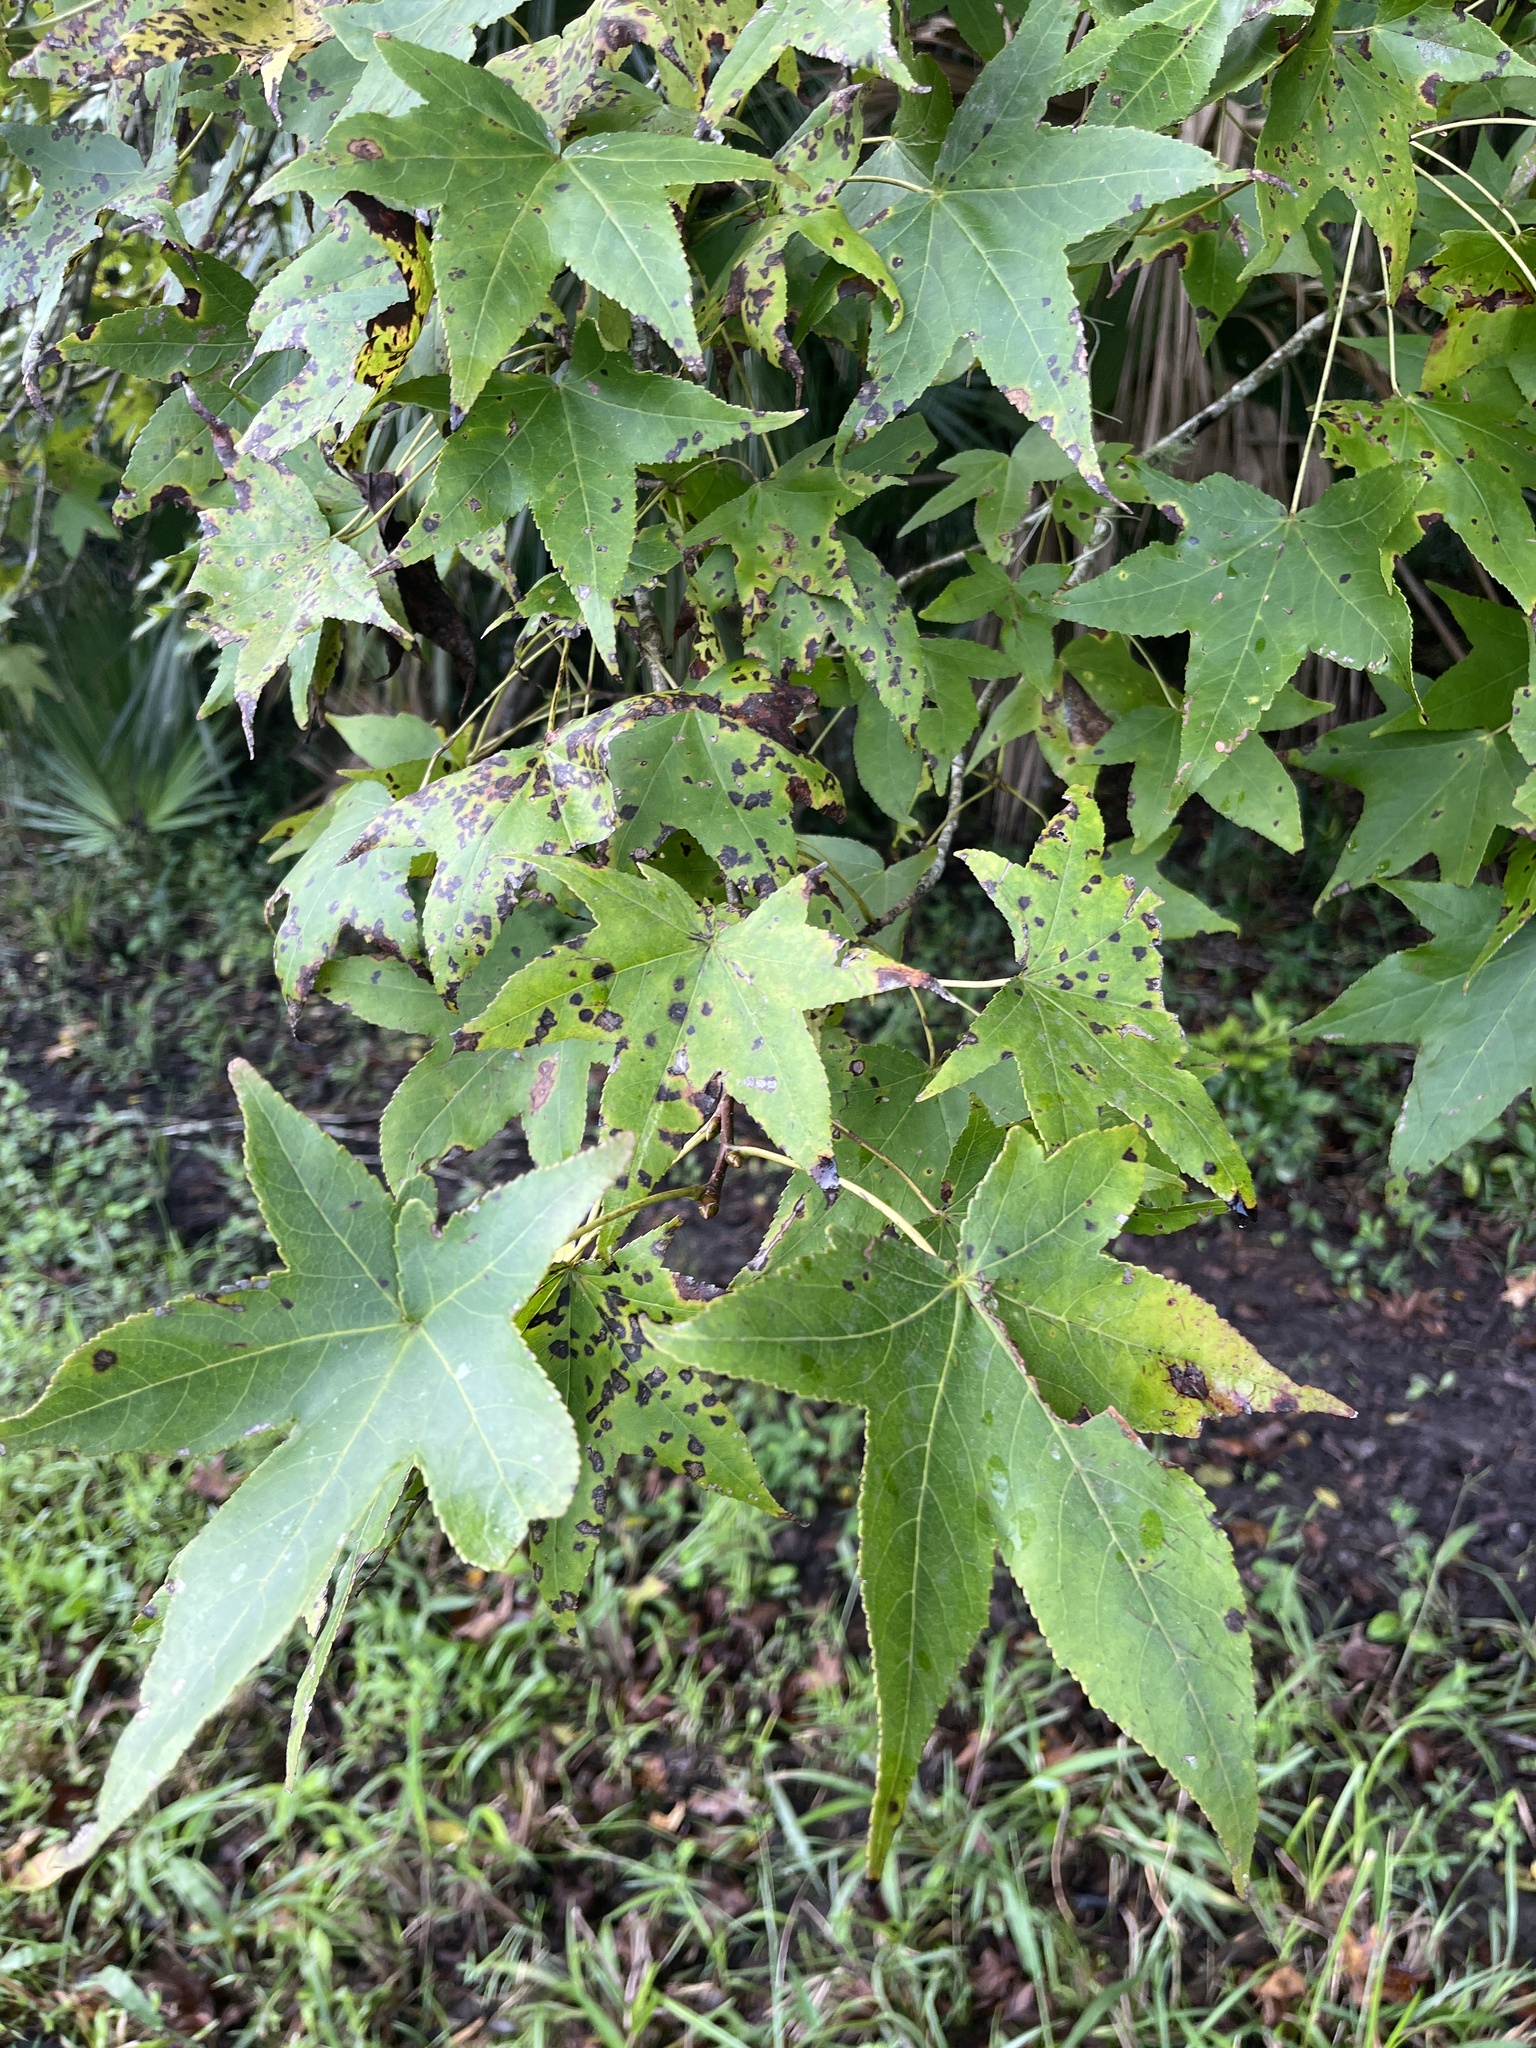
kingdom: Plantae
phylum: Tracheophyta
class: Magnoliopsida
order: Saxifragales
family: Altingiaceae
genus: Liquidambar
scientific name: Liquidambar styraciflua
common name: Sweet gum
